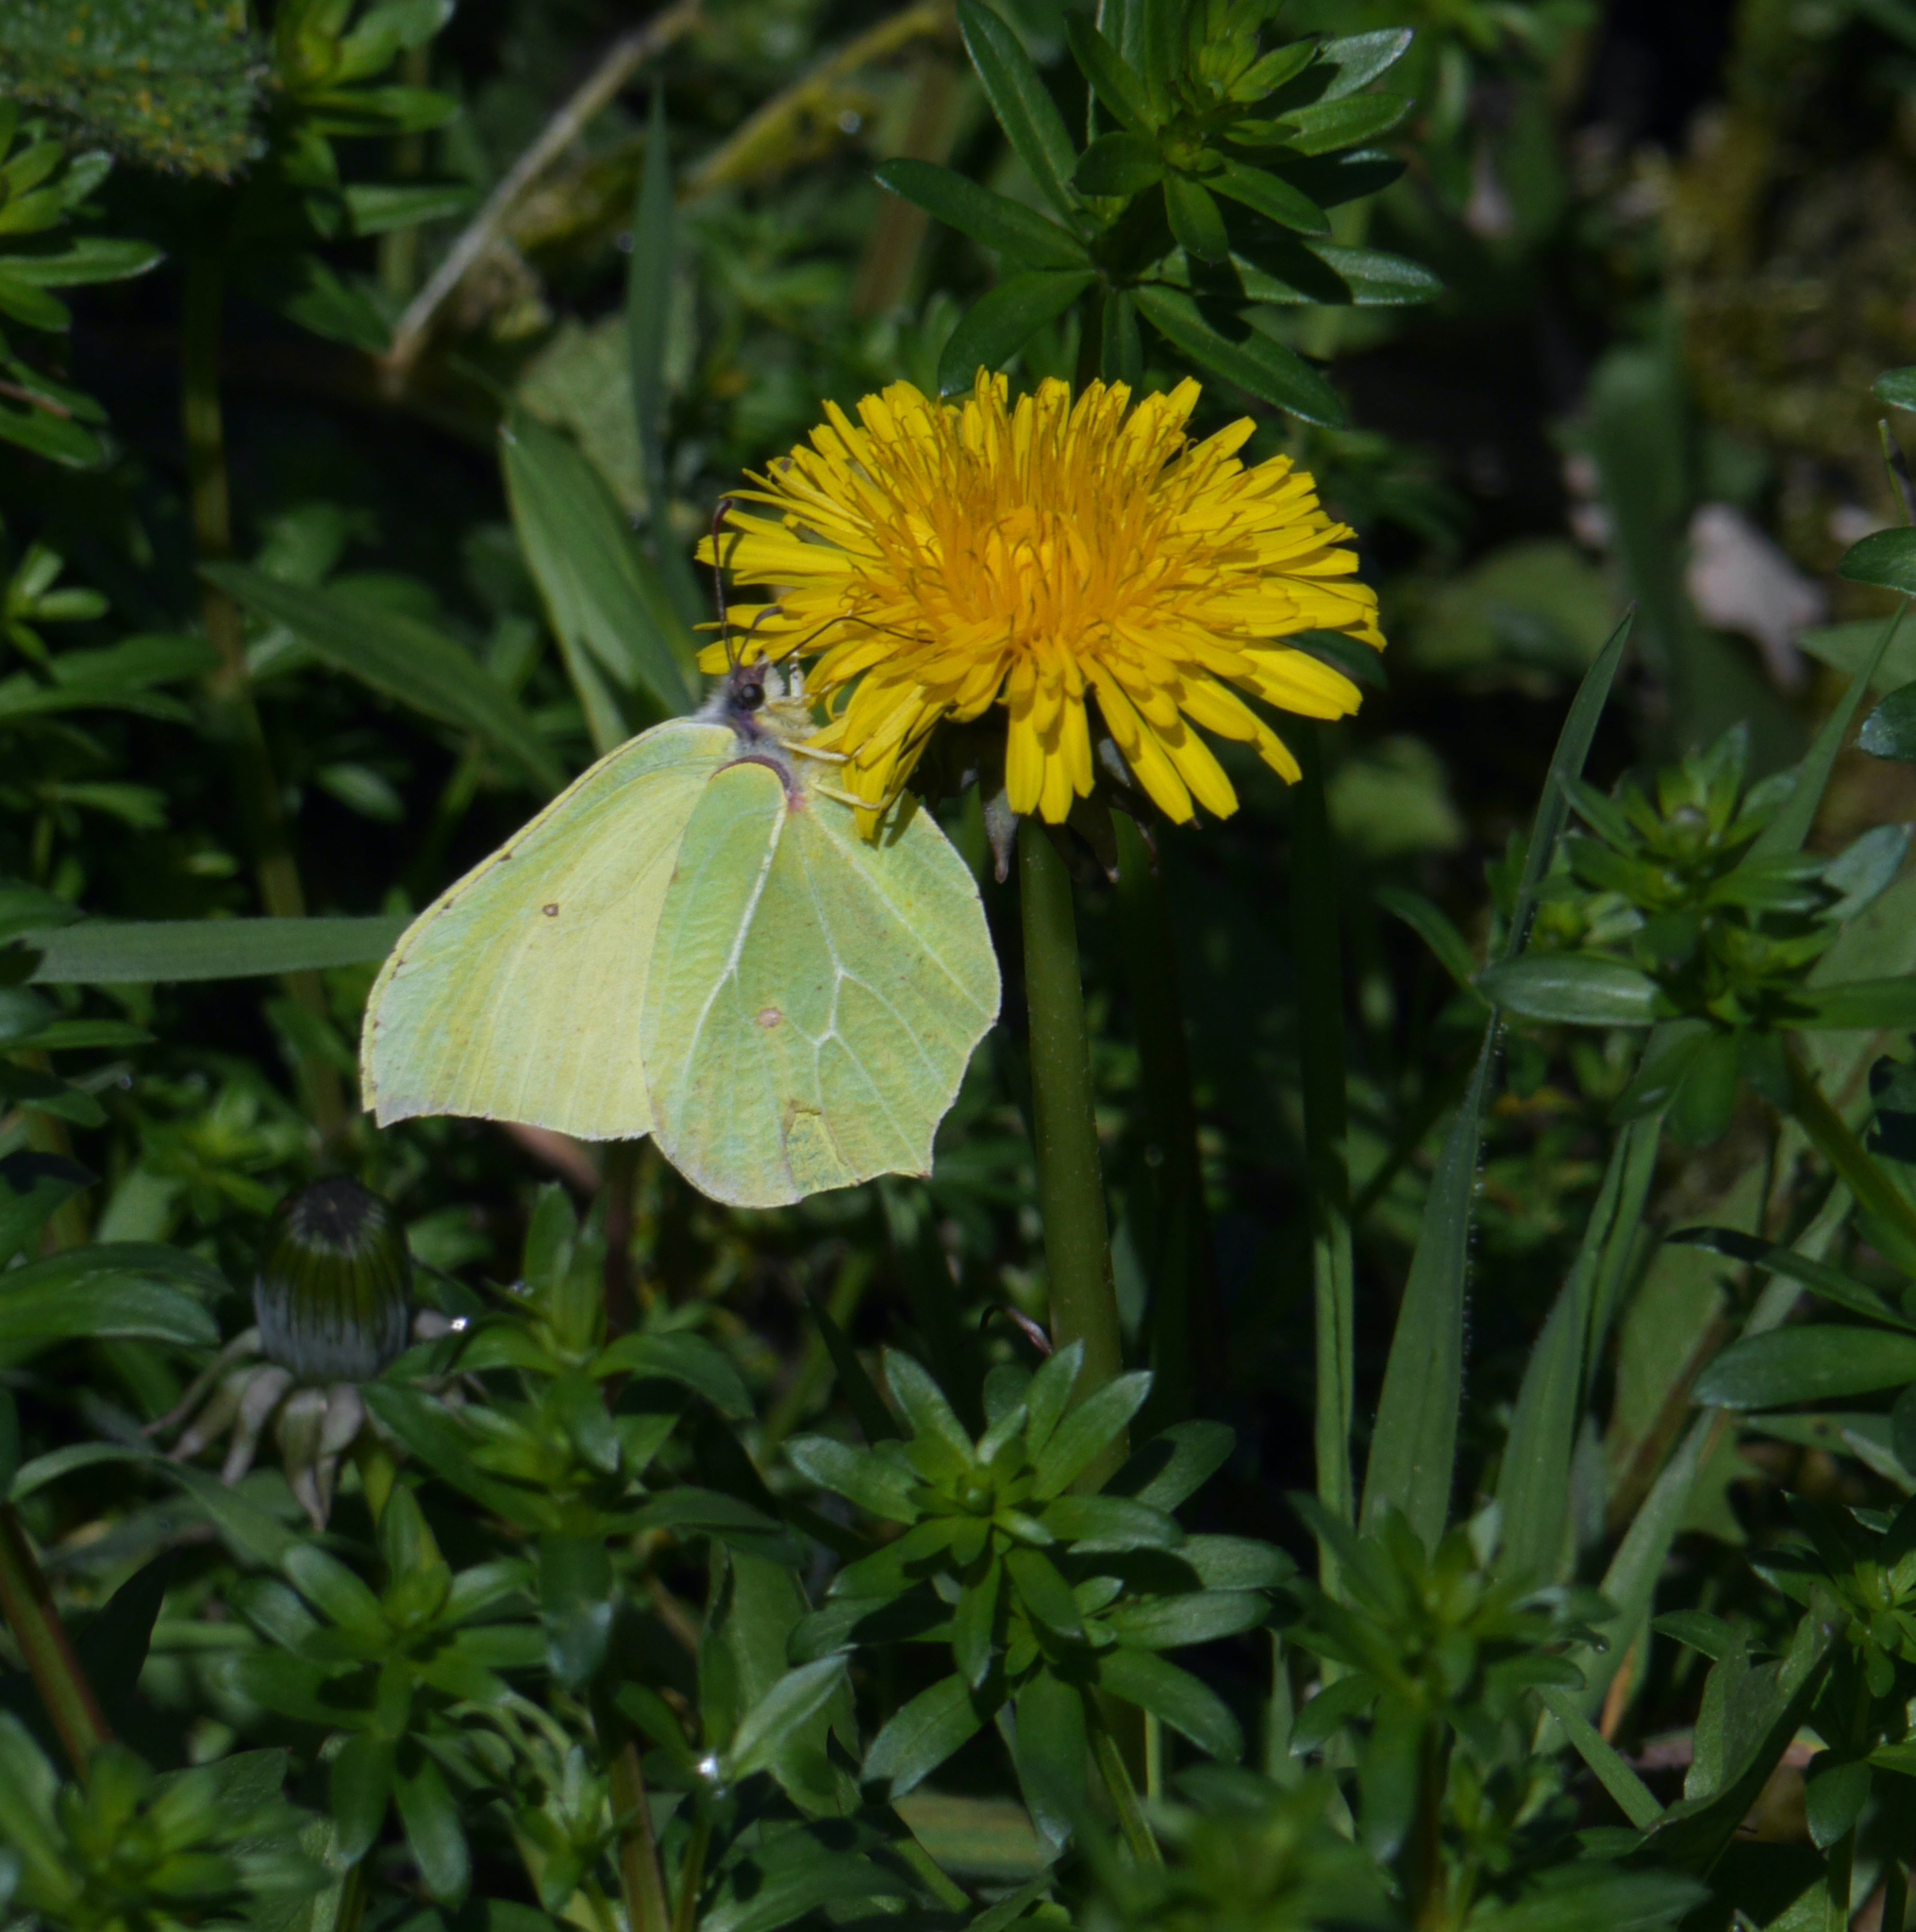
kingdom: Animalia
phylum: Arthropoda
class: Insecta
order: Lepidoptera
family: Pieridae
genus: Gonepteryx
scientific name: Gonepteryx rhamni
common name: Brimstone
